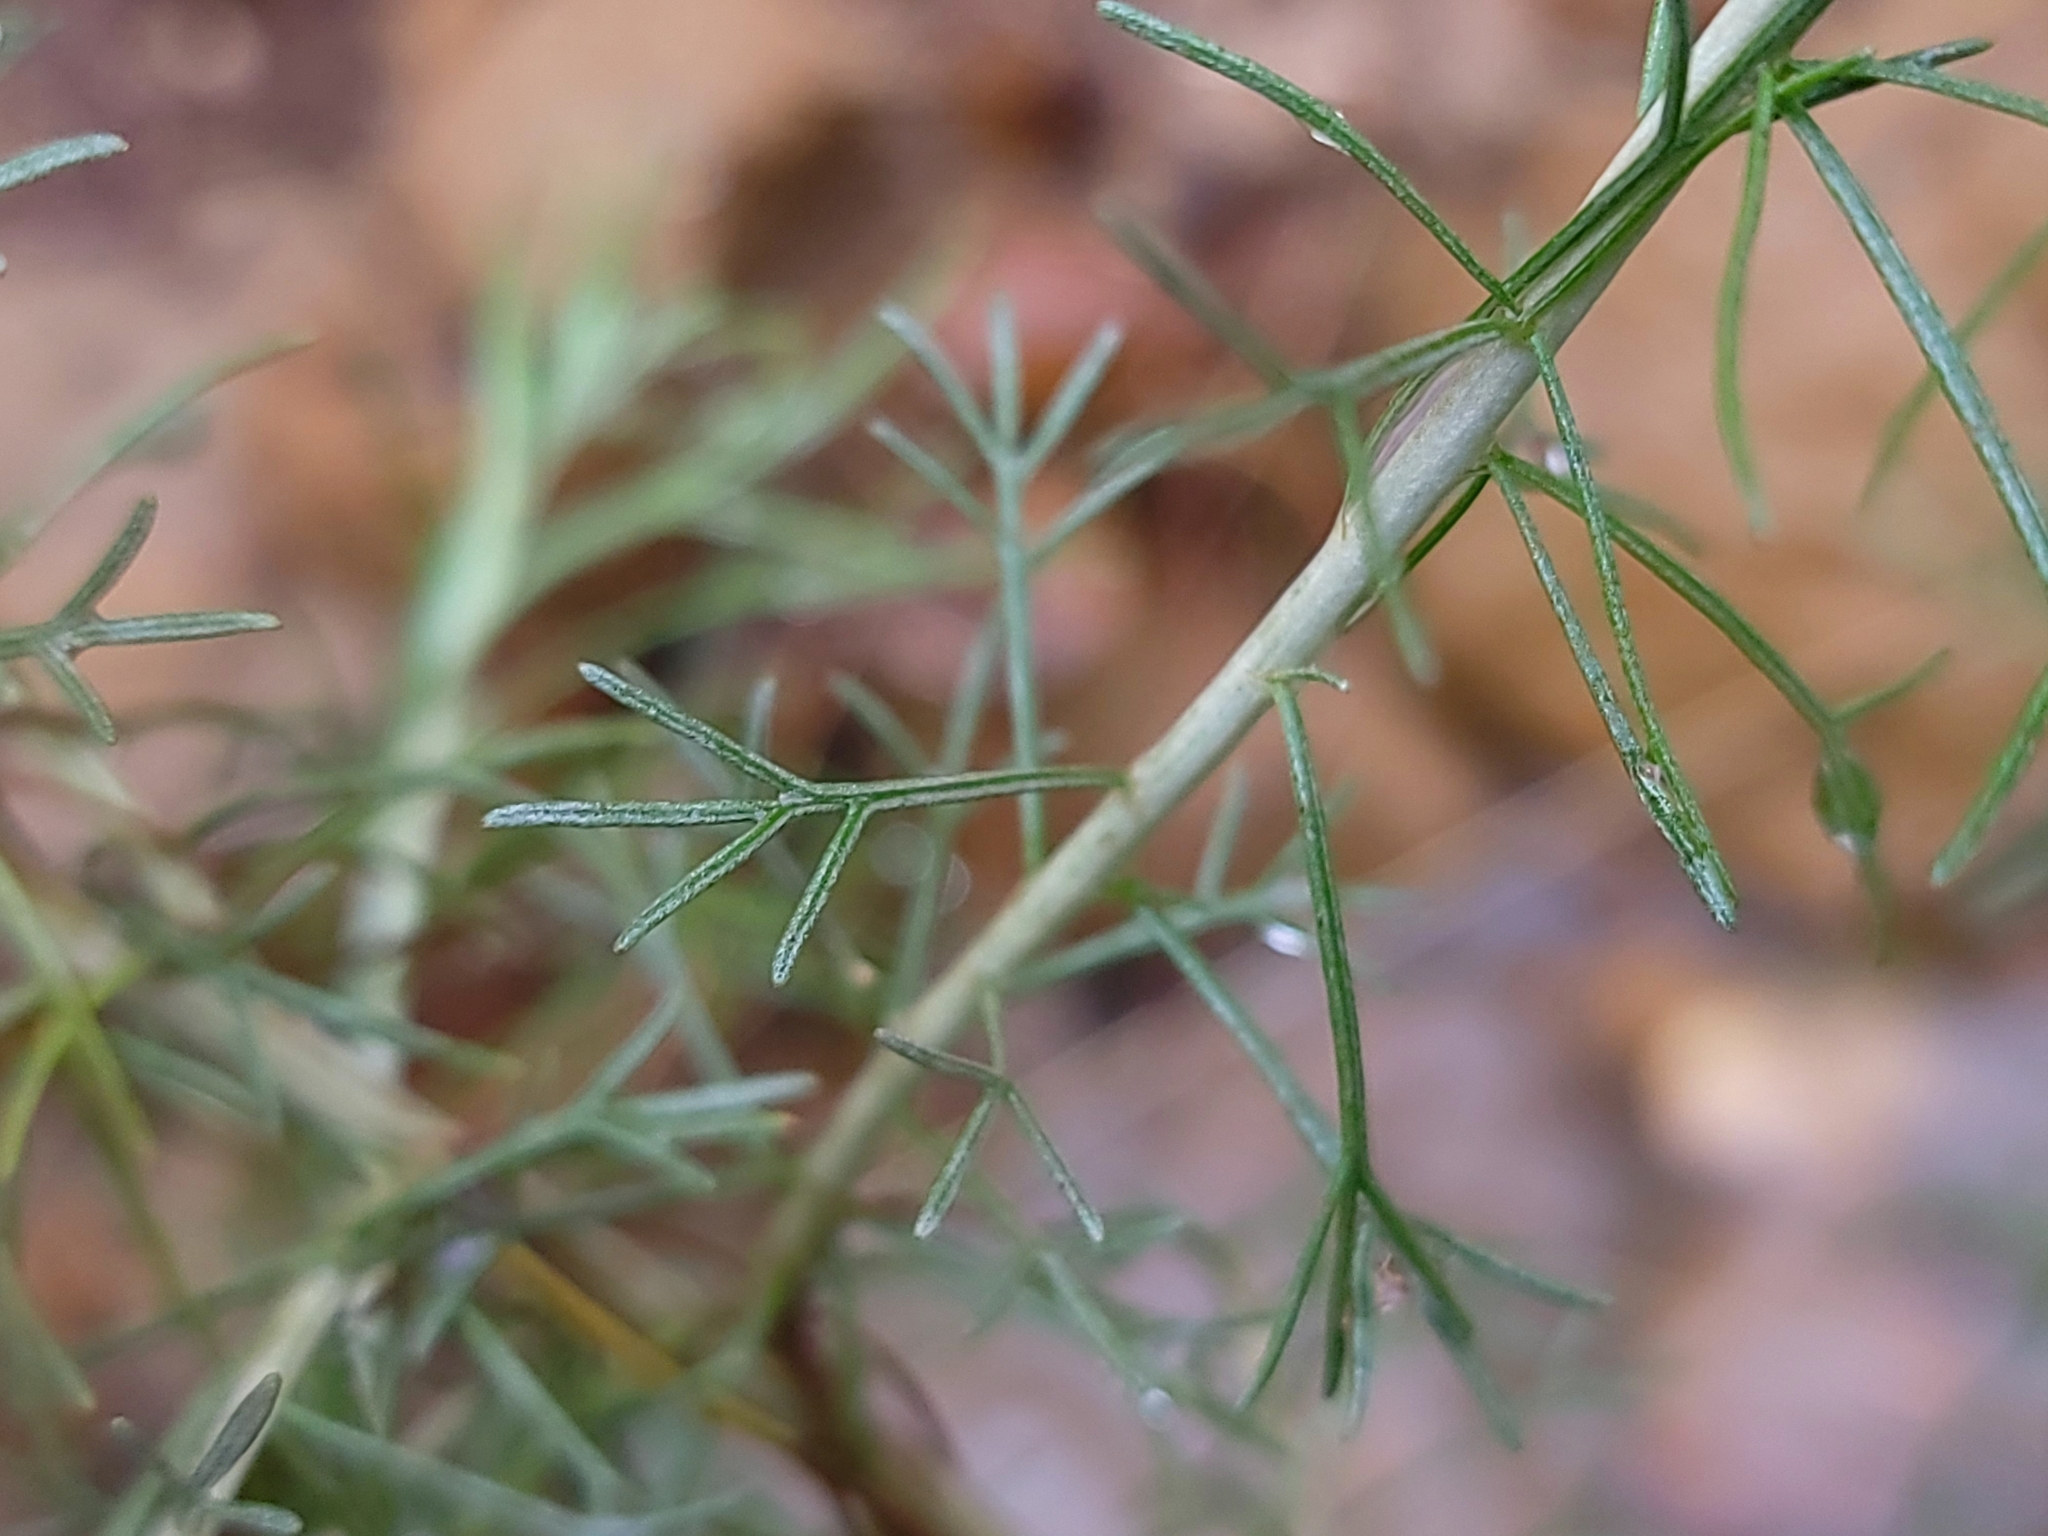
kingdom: Plantae
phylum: Tracheophyta
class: Magnoliopsida
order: Asterales
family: Asteraceae
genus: Artemisia
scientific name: Artemisia californica
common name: California sagebrush
